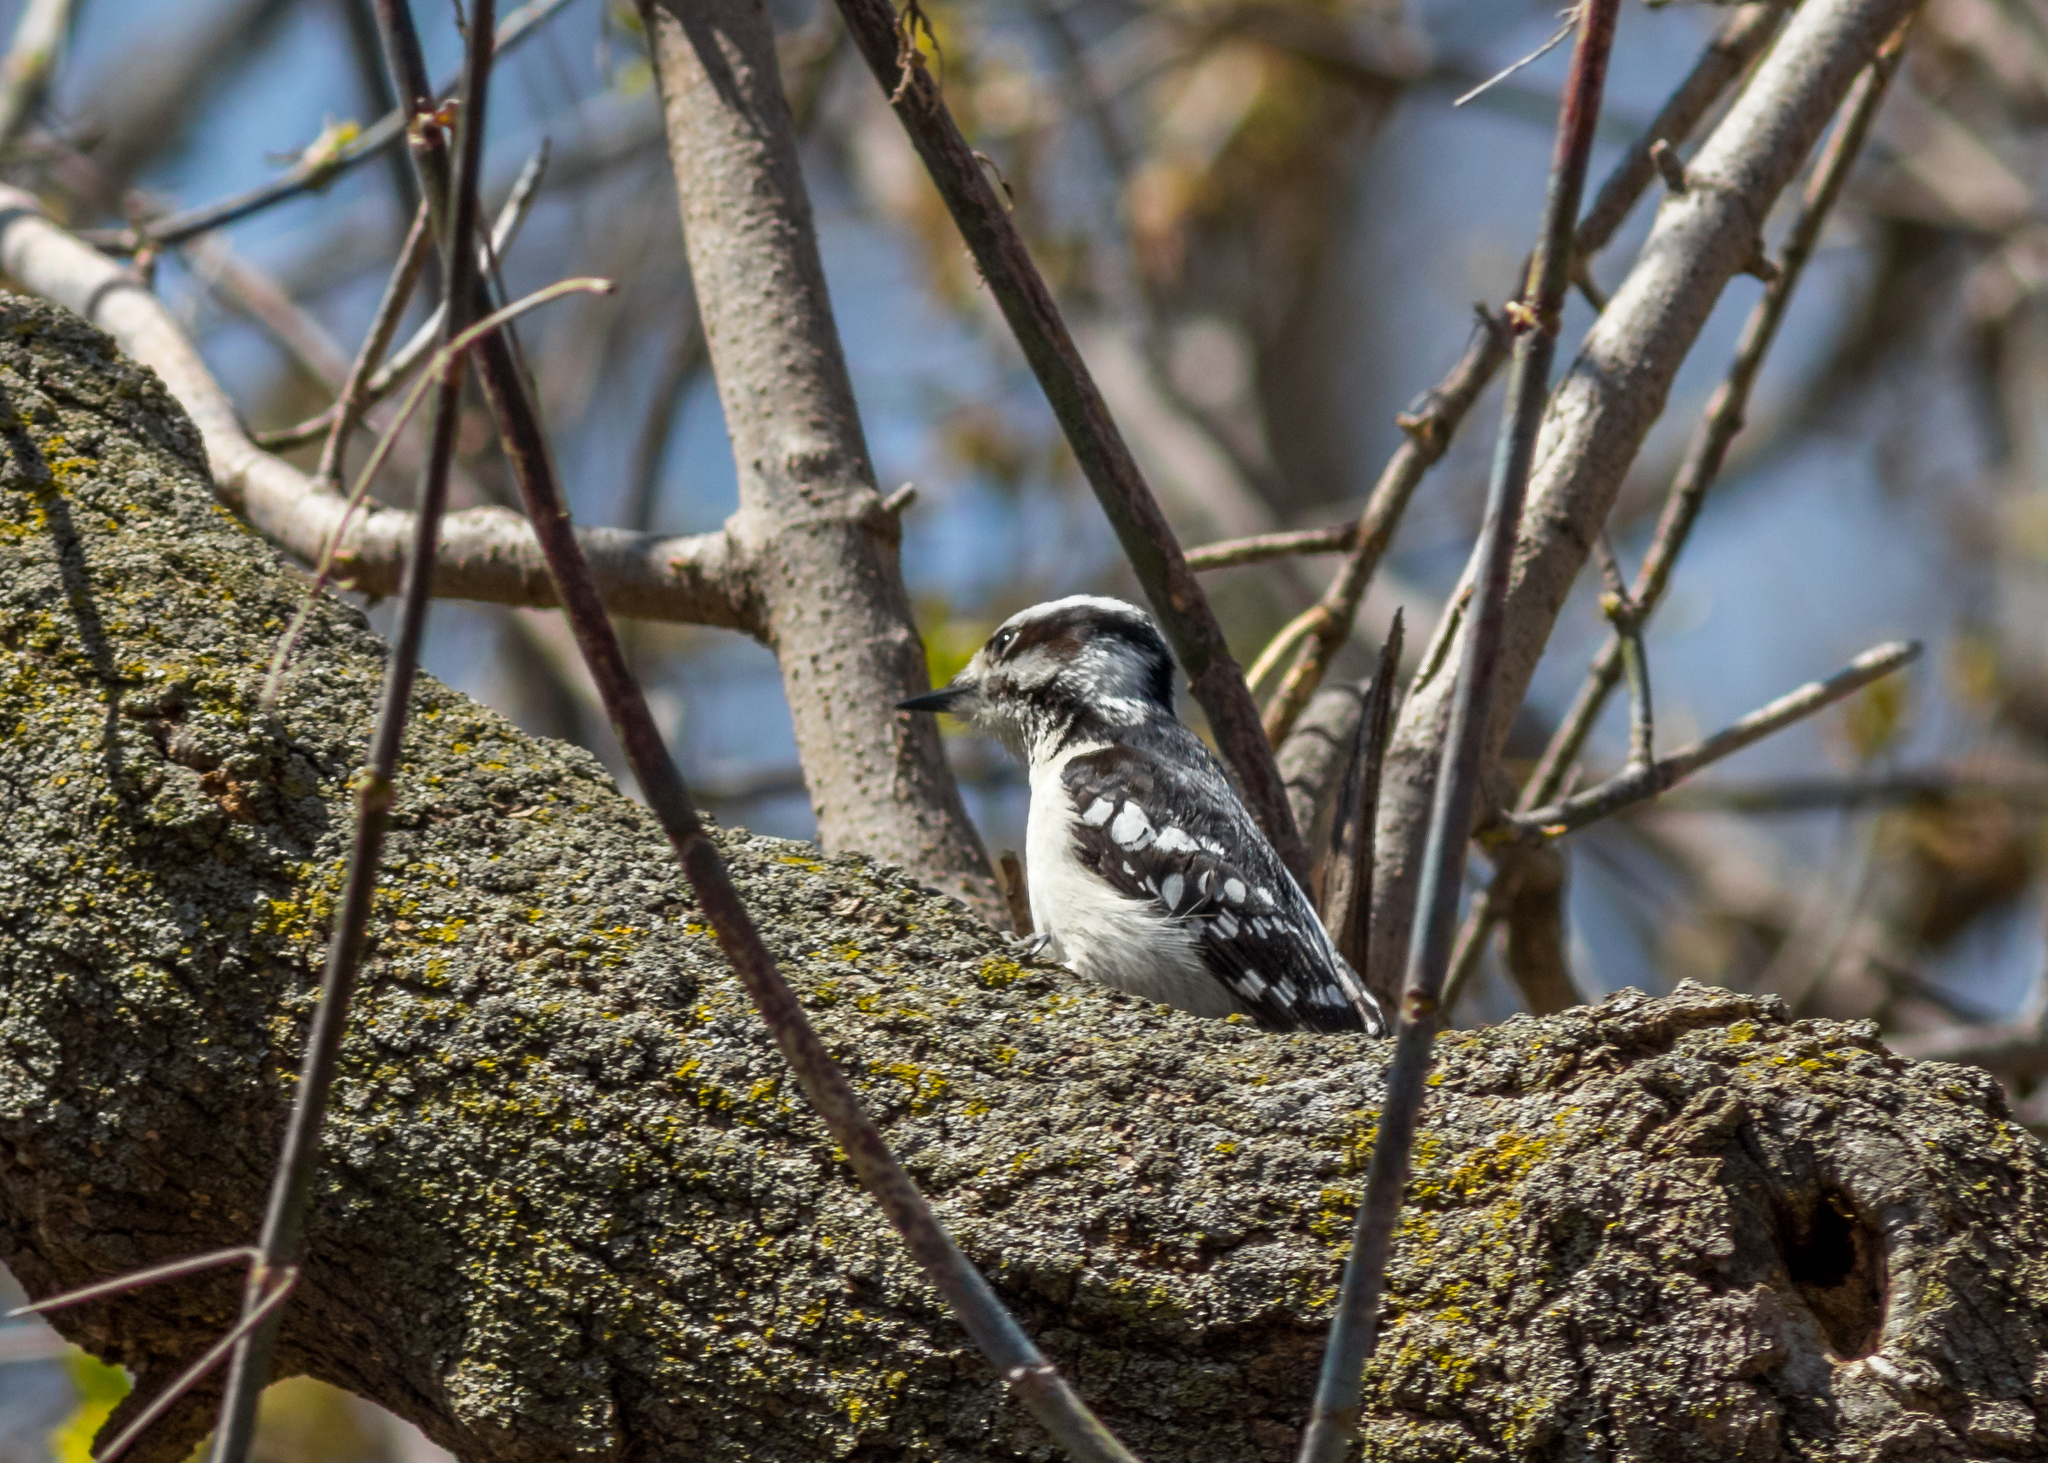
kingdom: Animalia
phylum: Chordata
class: Aves
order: Piciformes
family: Picidae
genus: Dryobates
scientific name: Dryobates pubescens
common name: Downy woodpecker
